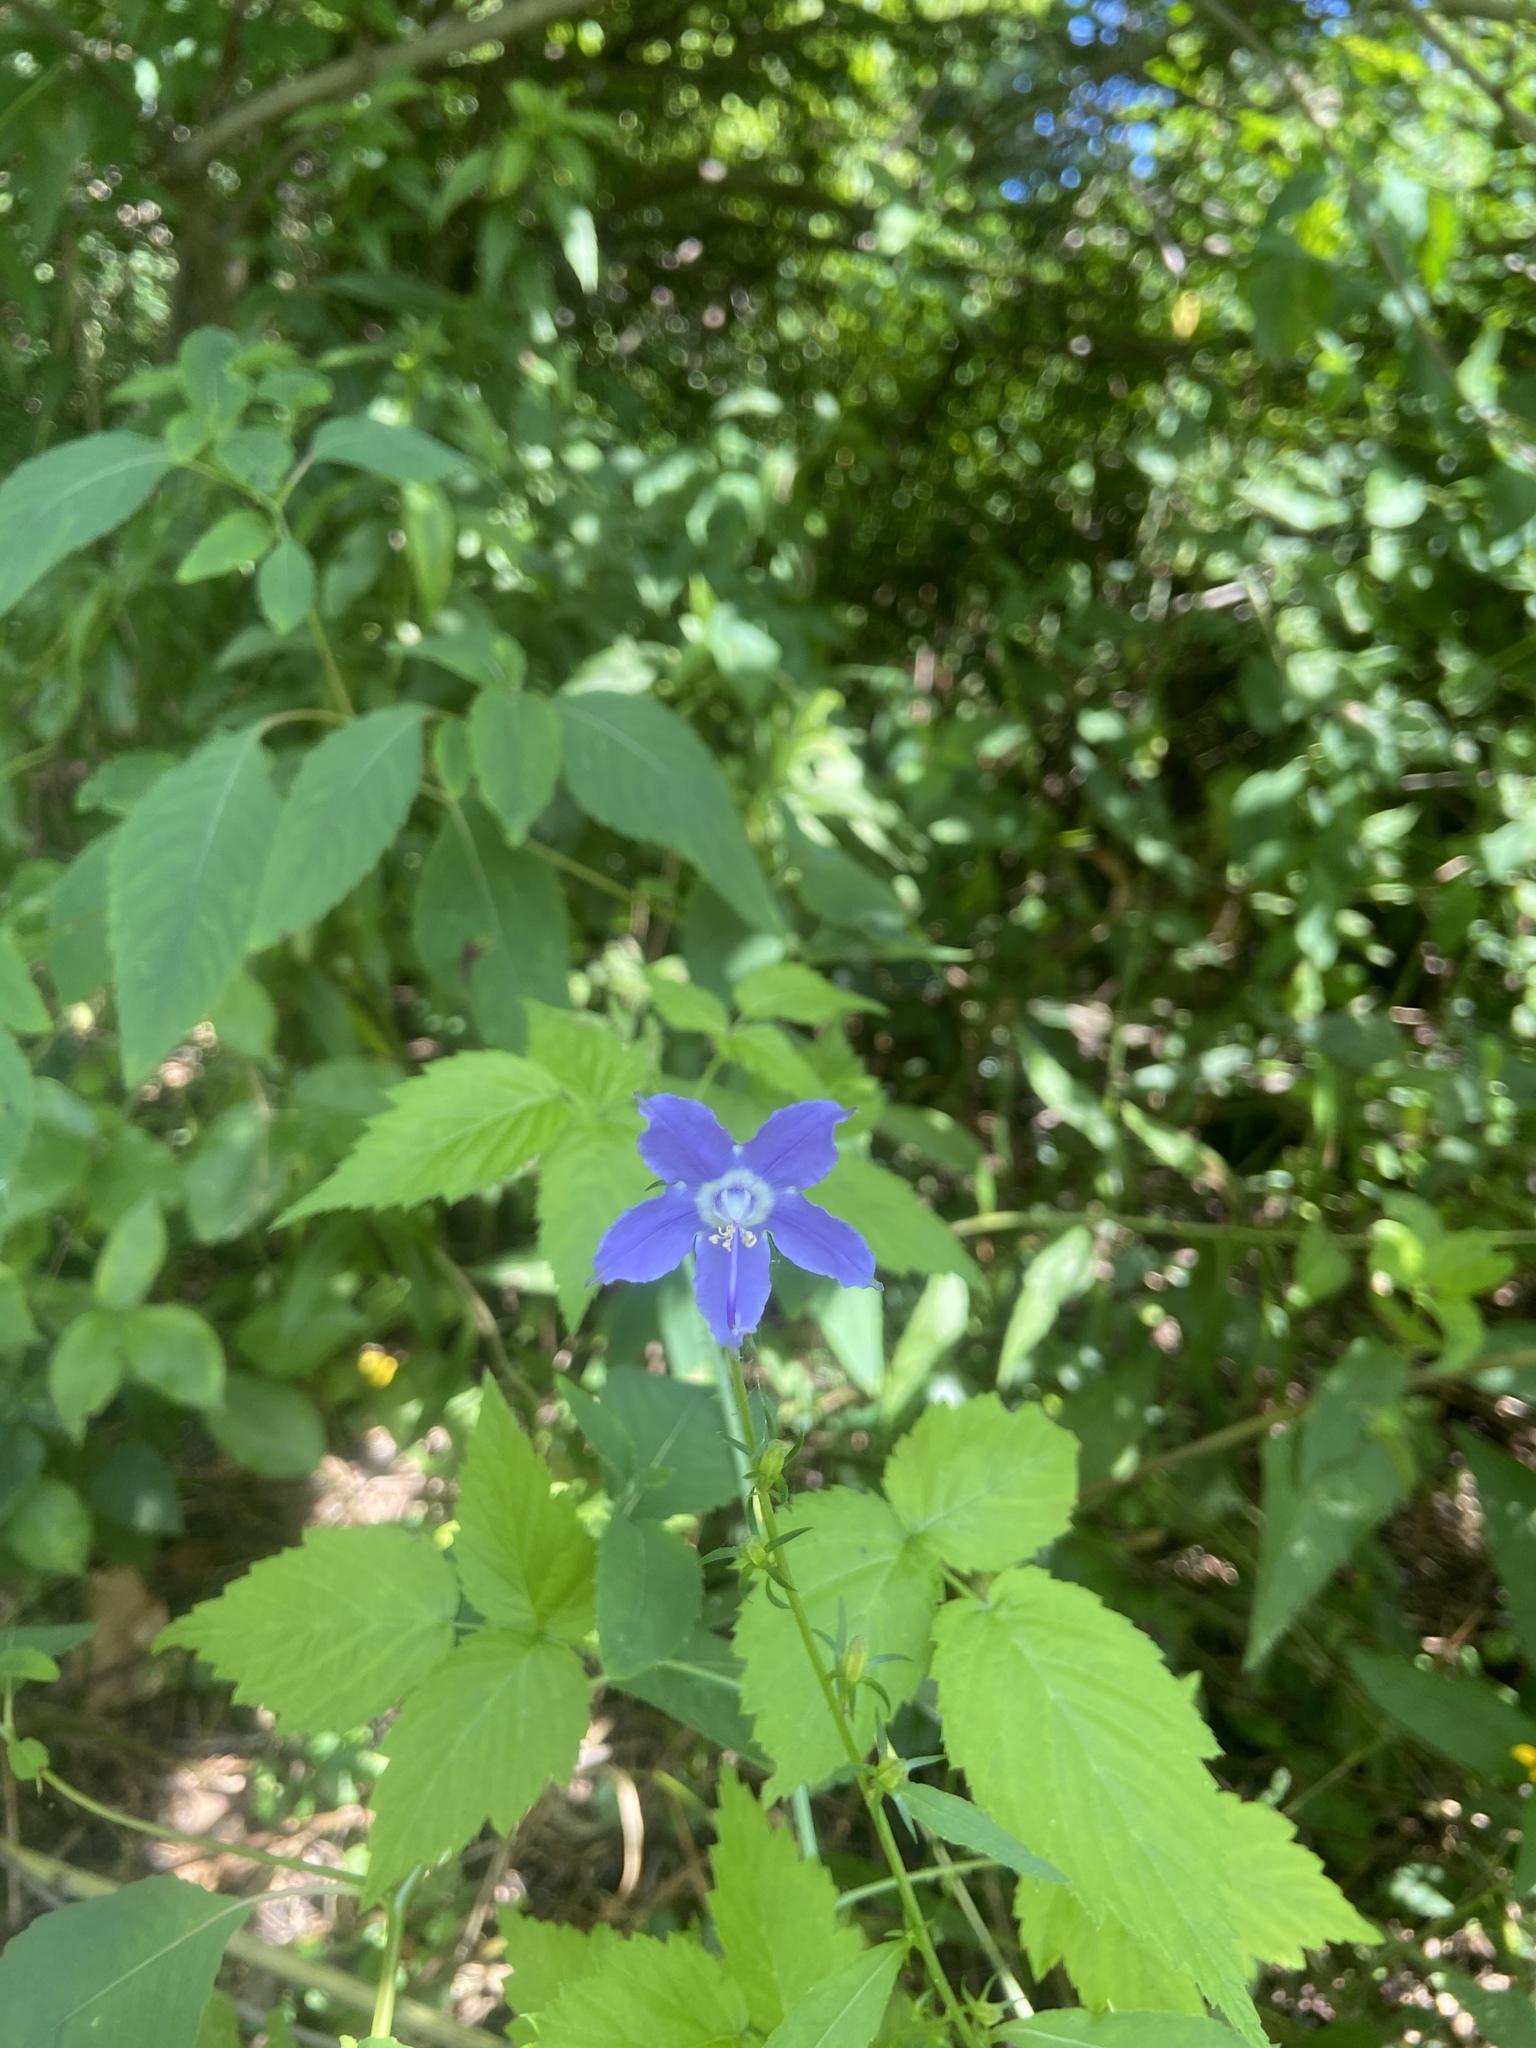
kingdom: Plantae
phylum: Tracheophyta
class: Magnoliopsida
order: Asterales
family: Campanulaceae
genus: Campanulastrum
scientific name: Campanulastrum americanum
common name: American bellflower
